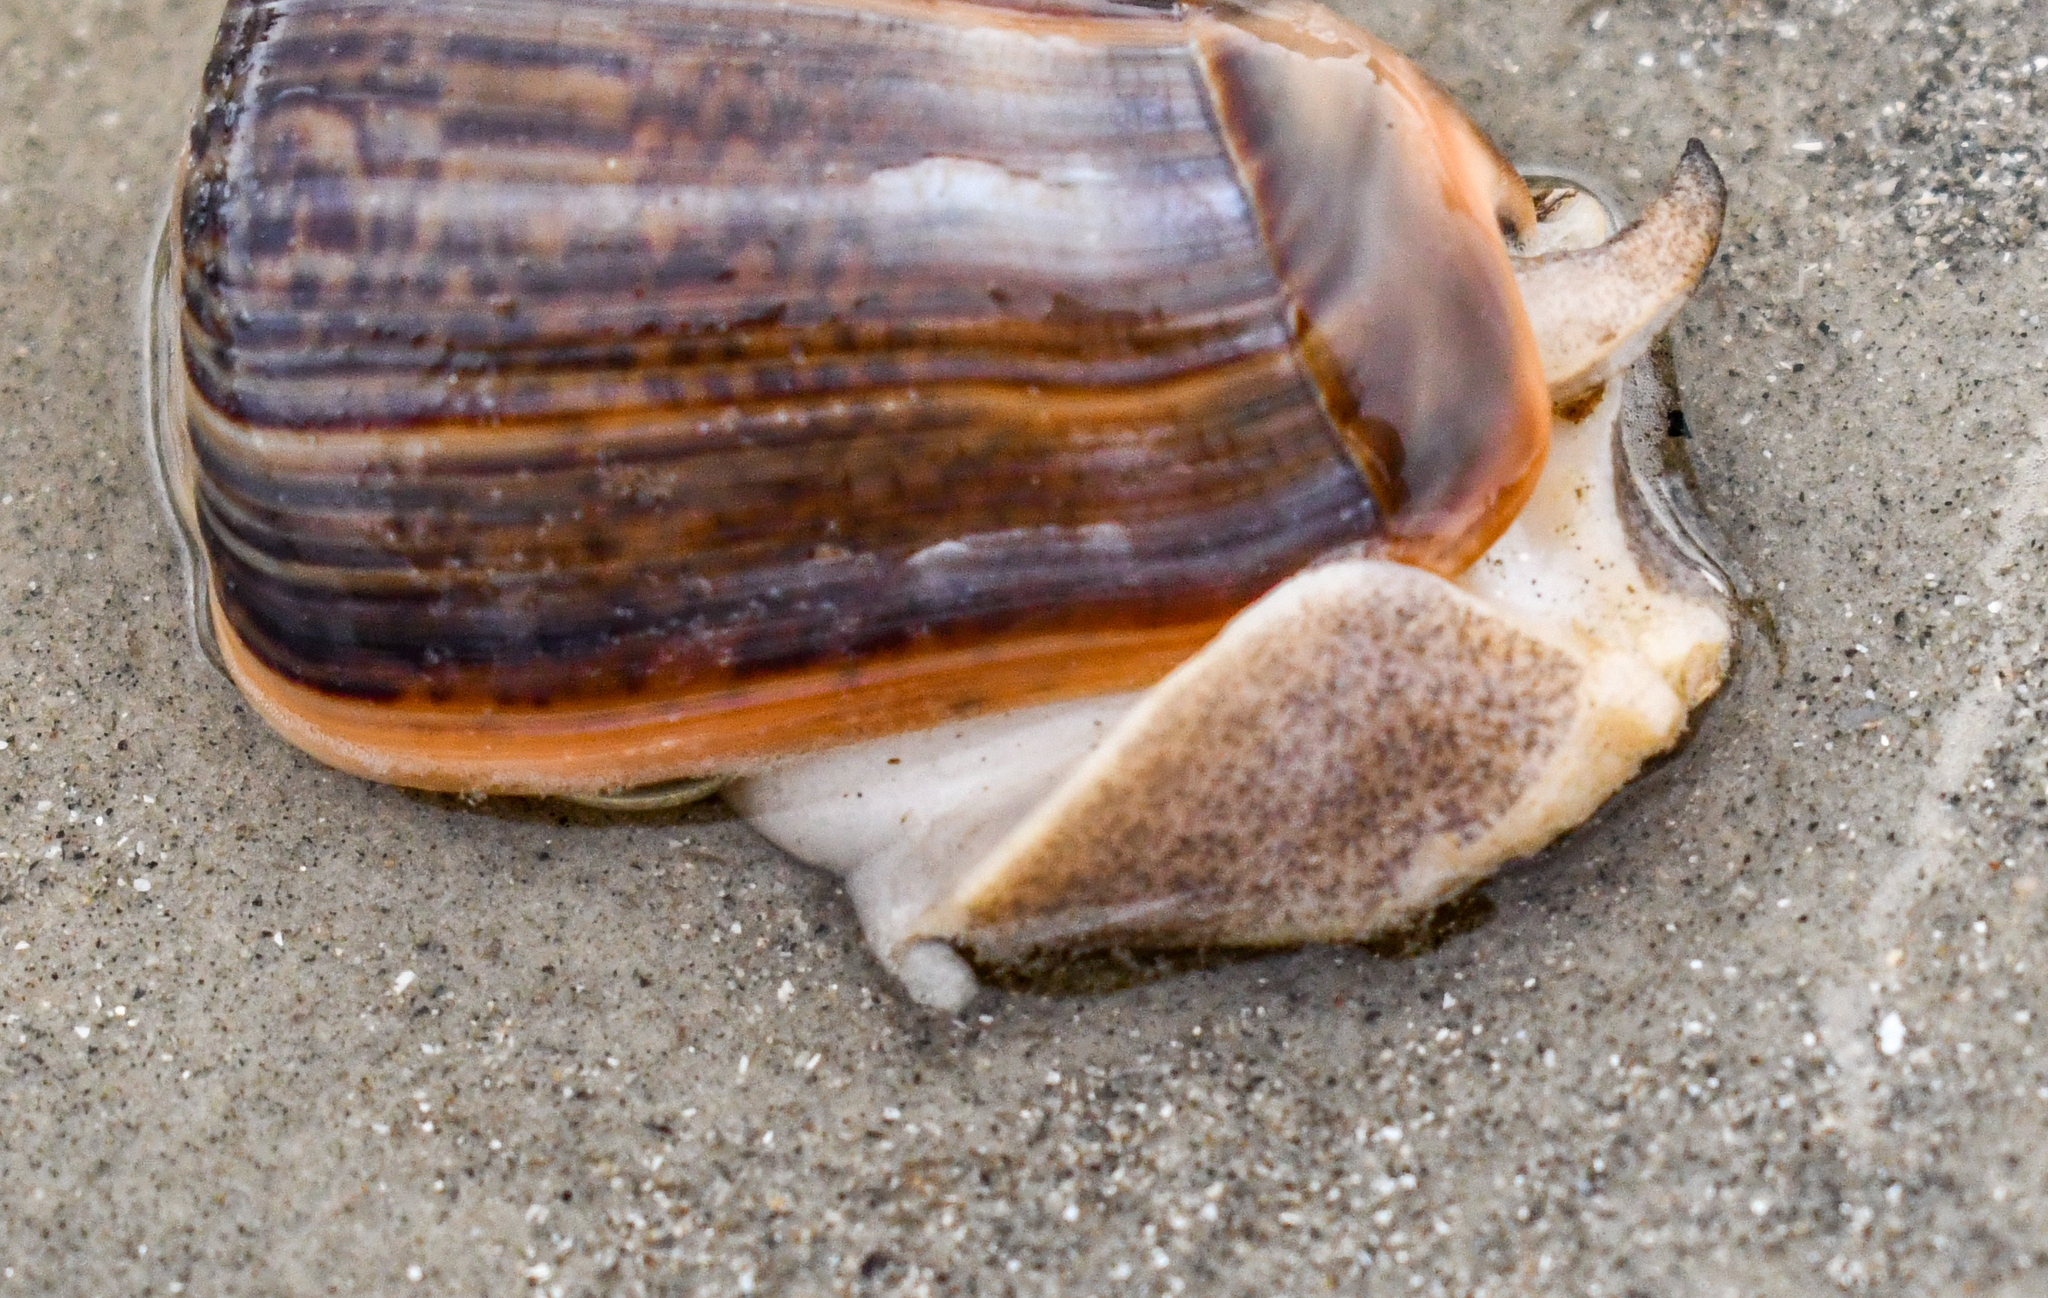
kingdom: Animalia
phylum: Mollusca
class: Gastropoda
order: Neogastropoda
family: Olividae
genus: Olivancillaria
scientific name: Olivancillaria urceus
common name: Bear ancilla
